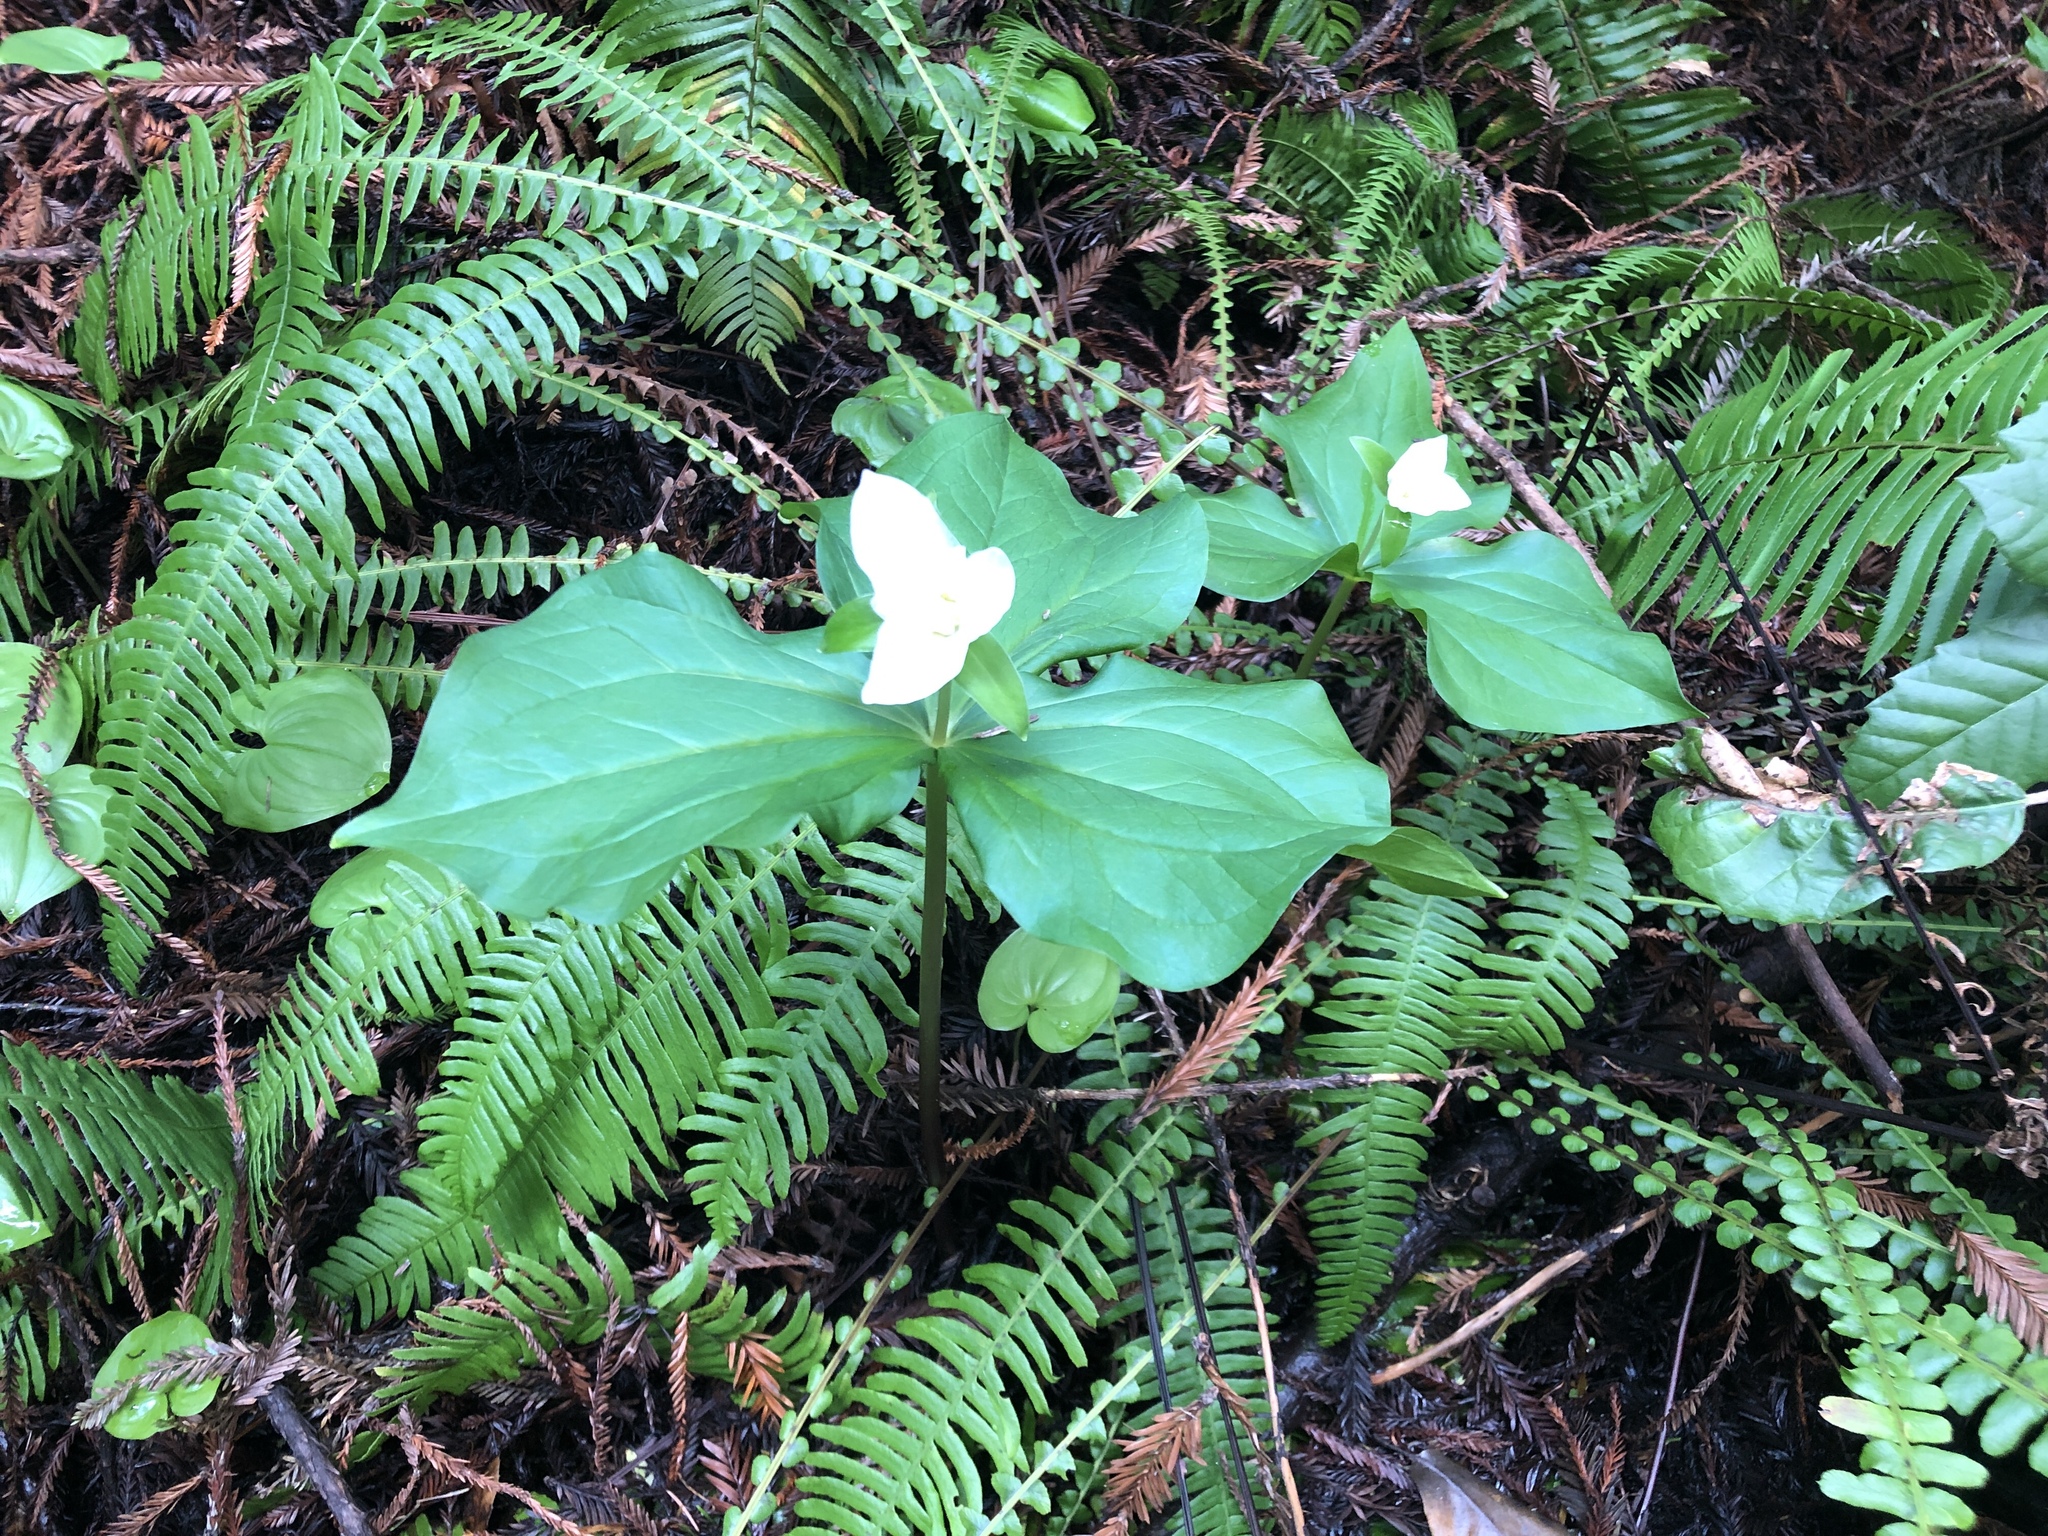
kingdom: Plantae
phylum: Tracheophyta
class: Liliopsida
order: Liliales
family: Melanthiaceae
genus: Trillium
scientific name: Trillium ovatum
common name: Pacific trillium
